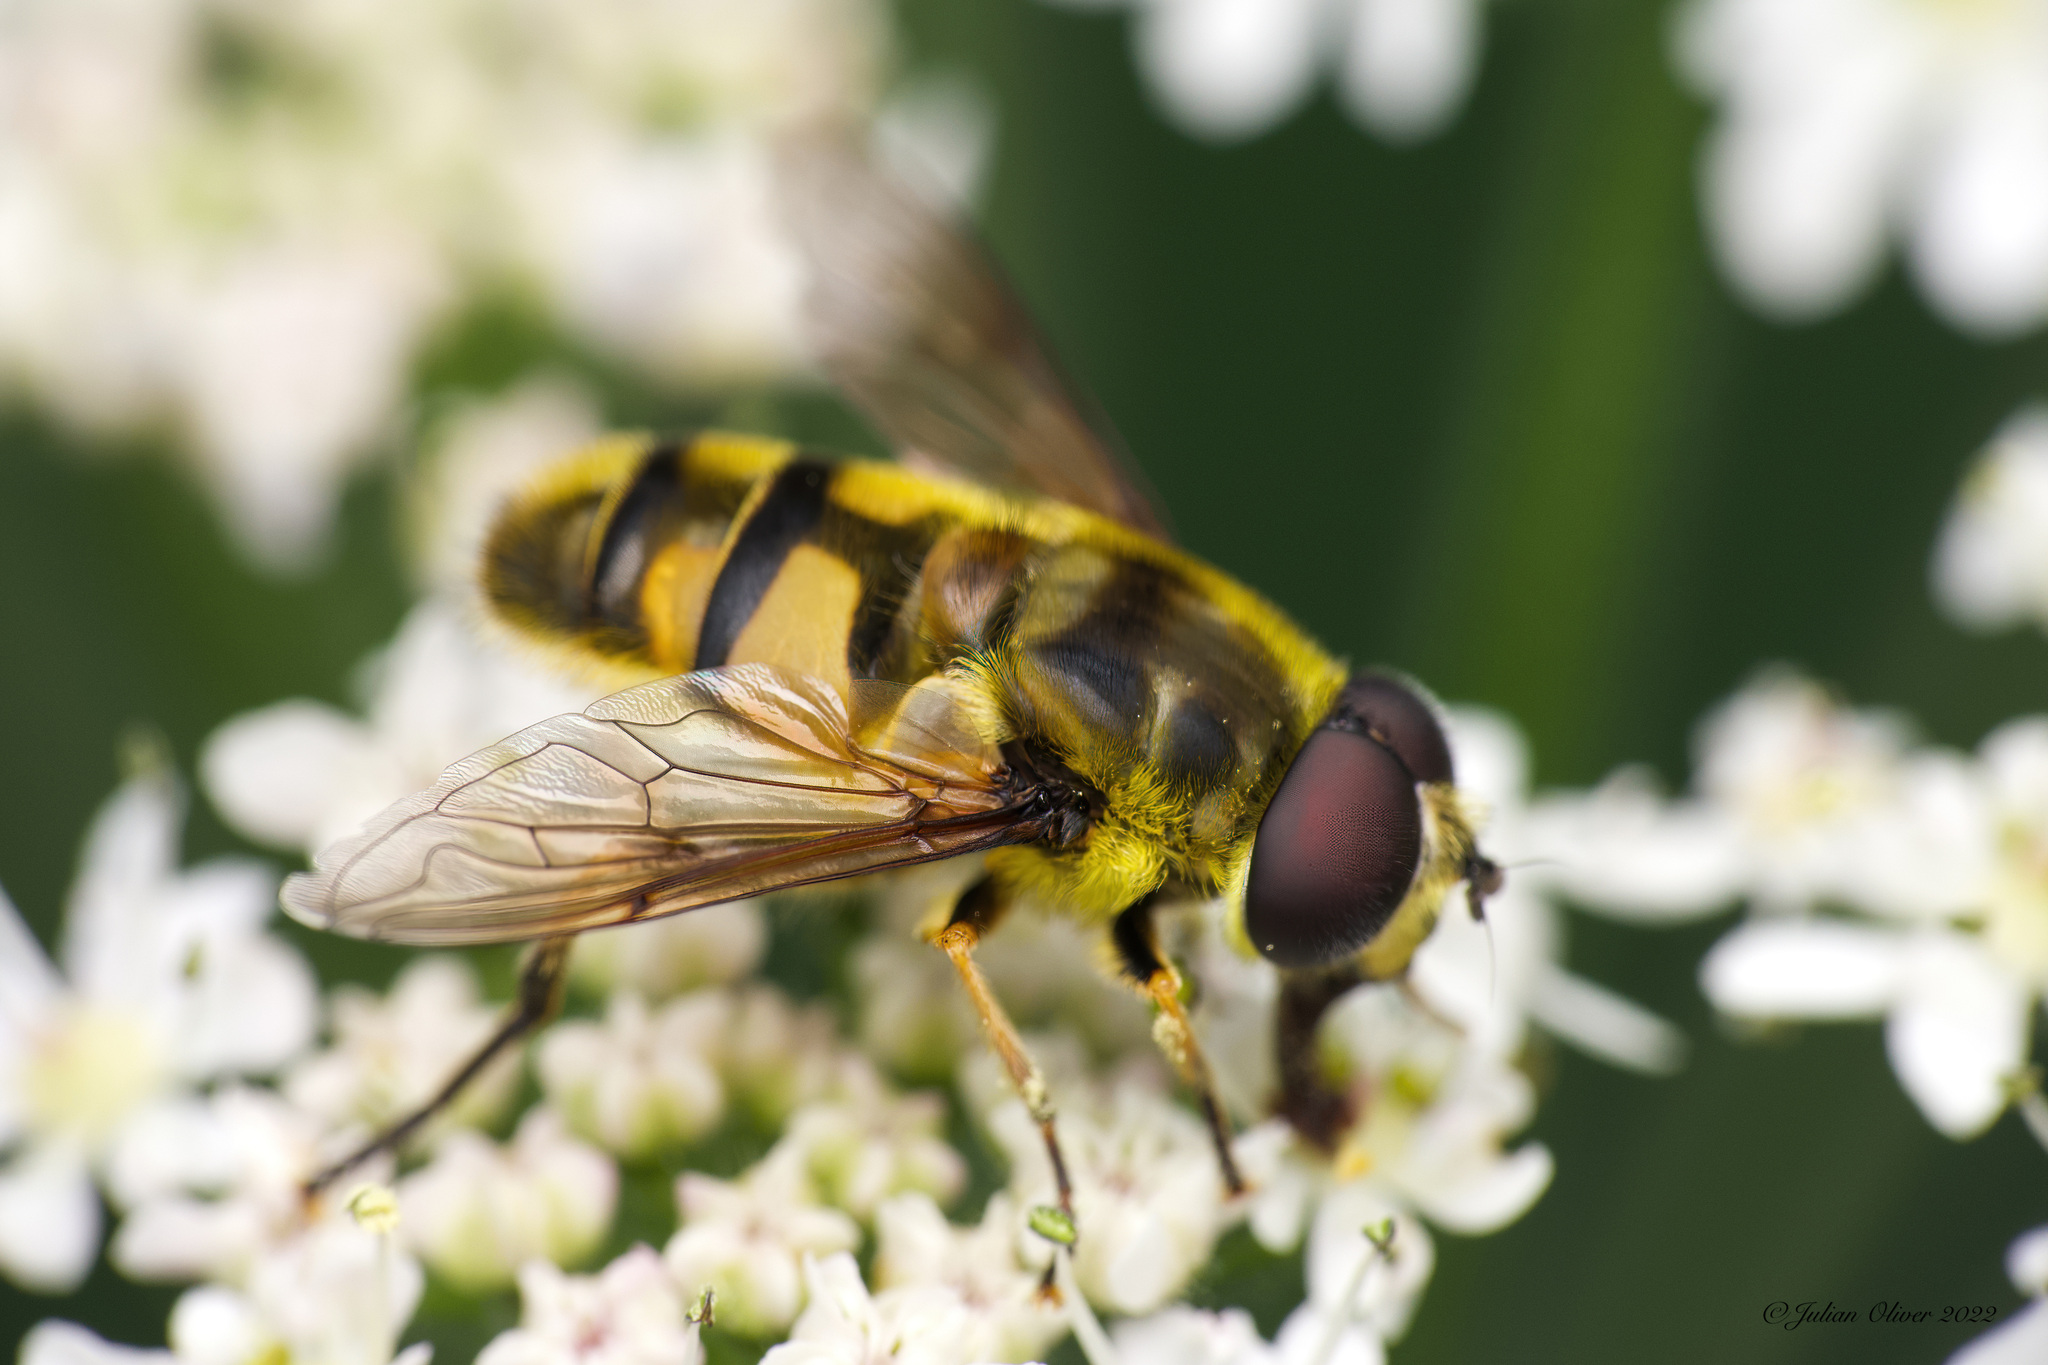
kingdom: Animalia
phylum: Arthropoda
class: Insecta
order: Diptera
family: Syrphidae
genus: Myathropa
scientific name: Myathropa florea
